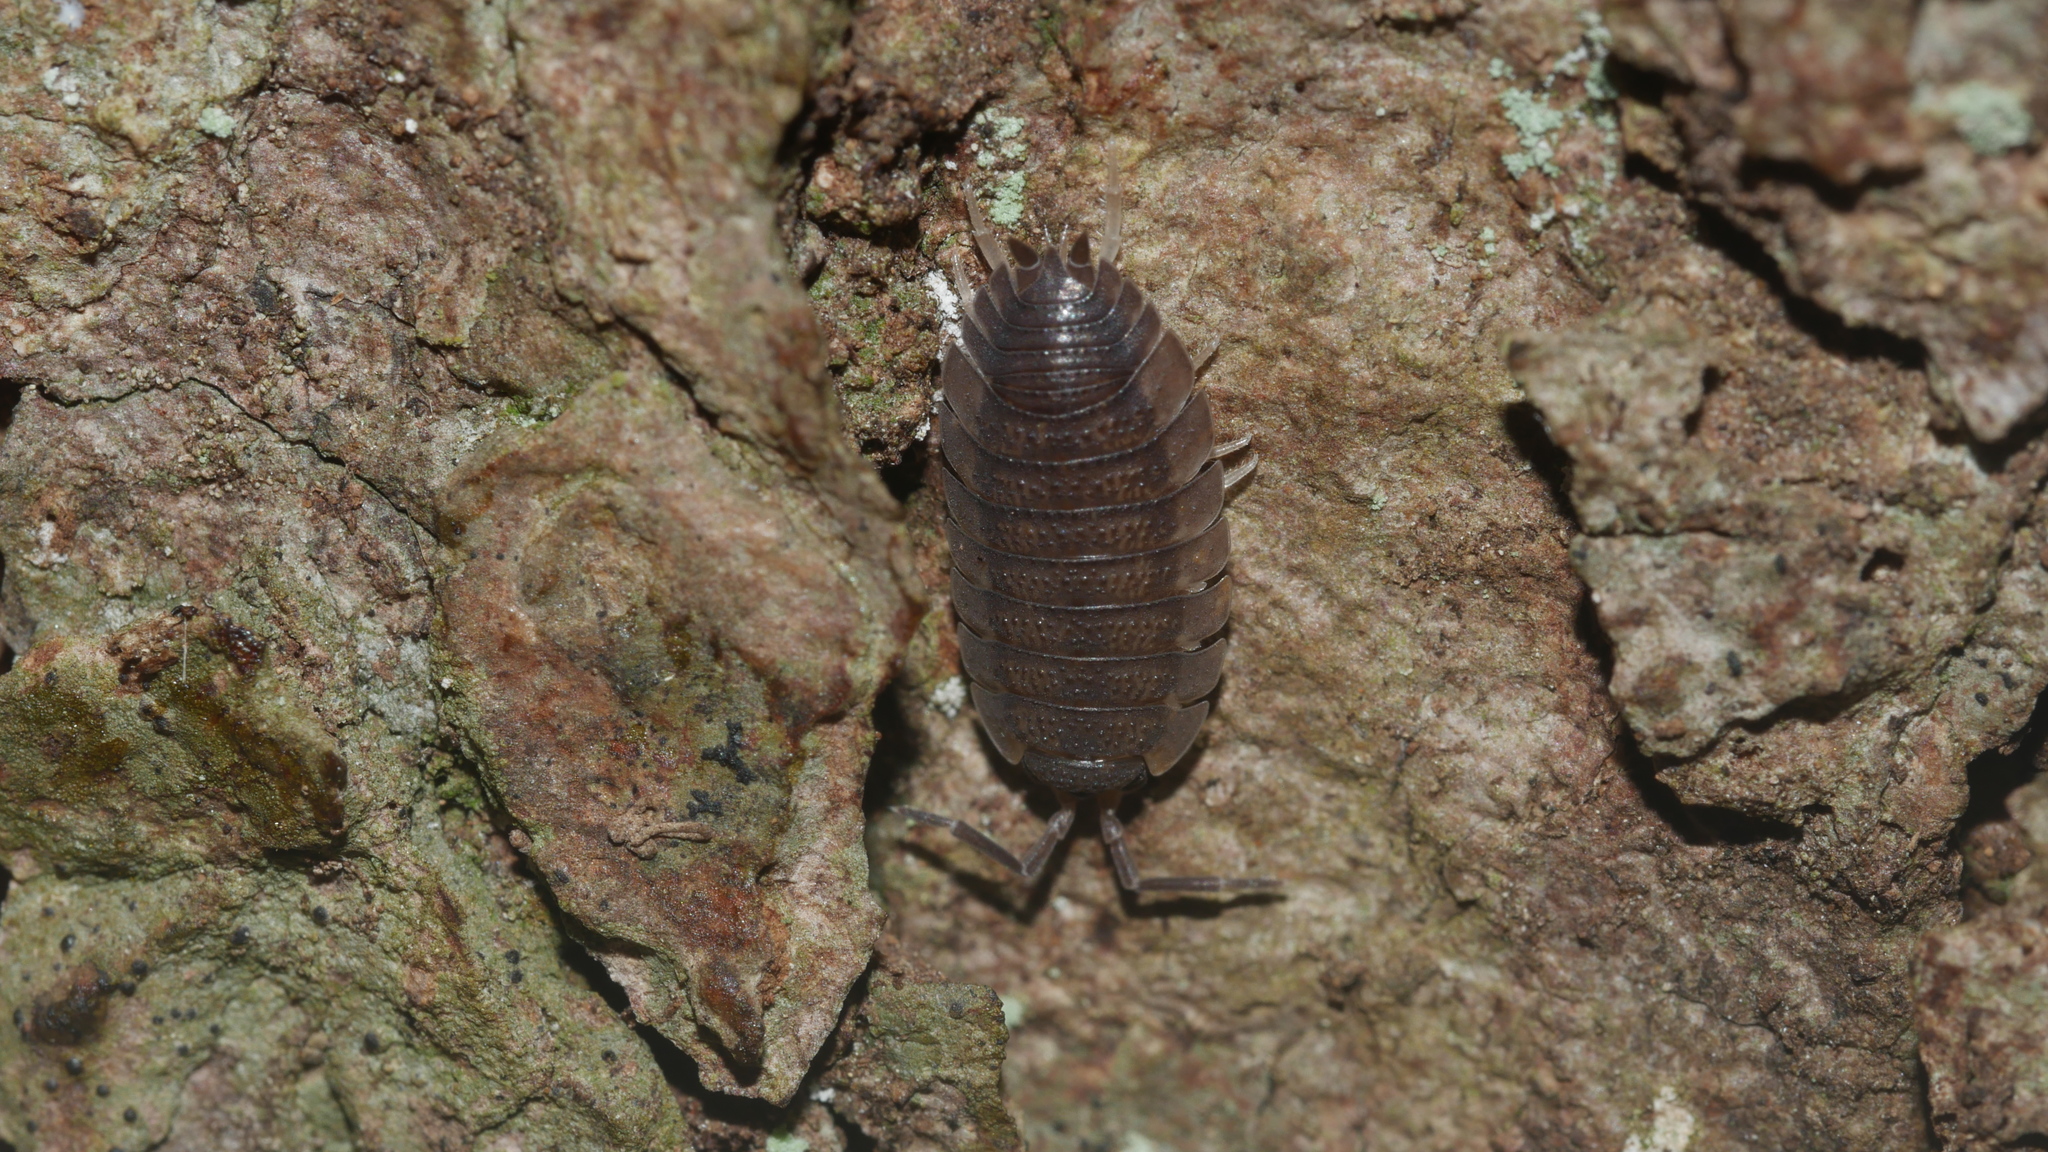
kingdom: Animalia
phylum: Arthropoda
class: Malacostraca
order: Isopoda
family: Porcellionidae
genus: Porcellio
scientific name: Porcellio scaber
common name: Common rough woodlouse
